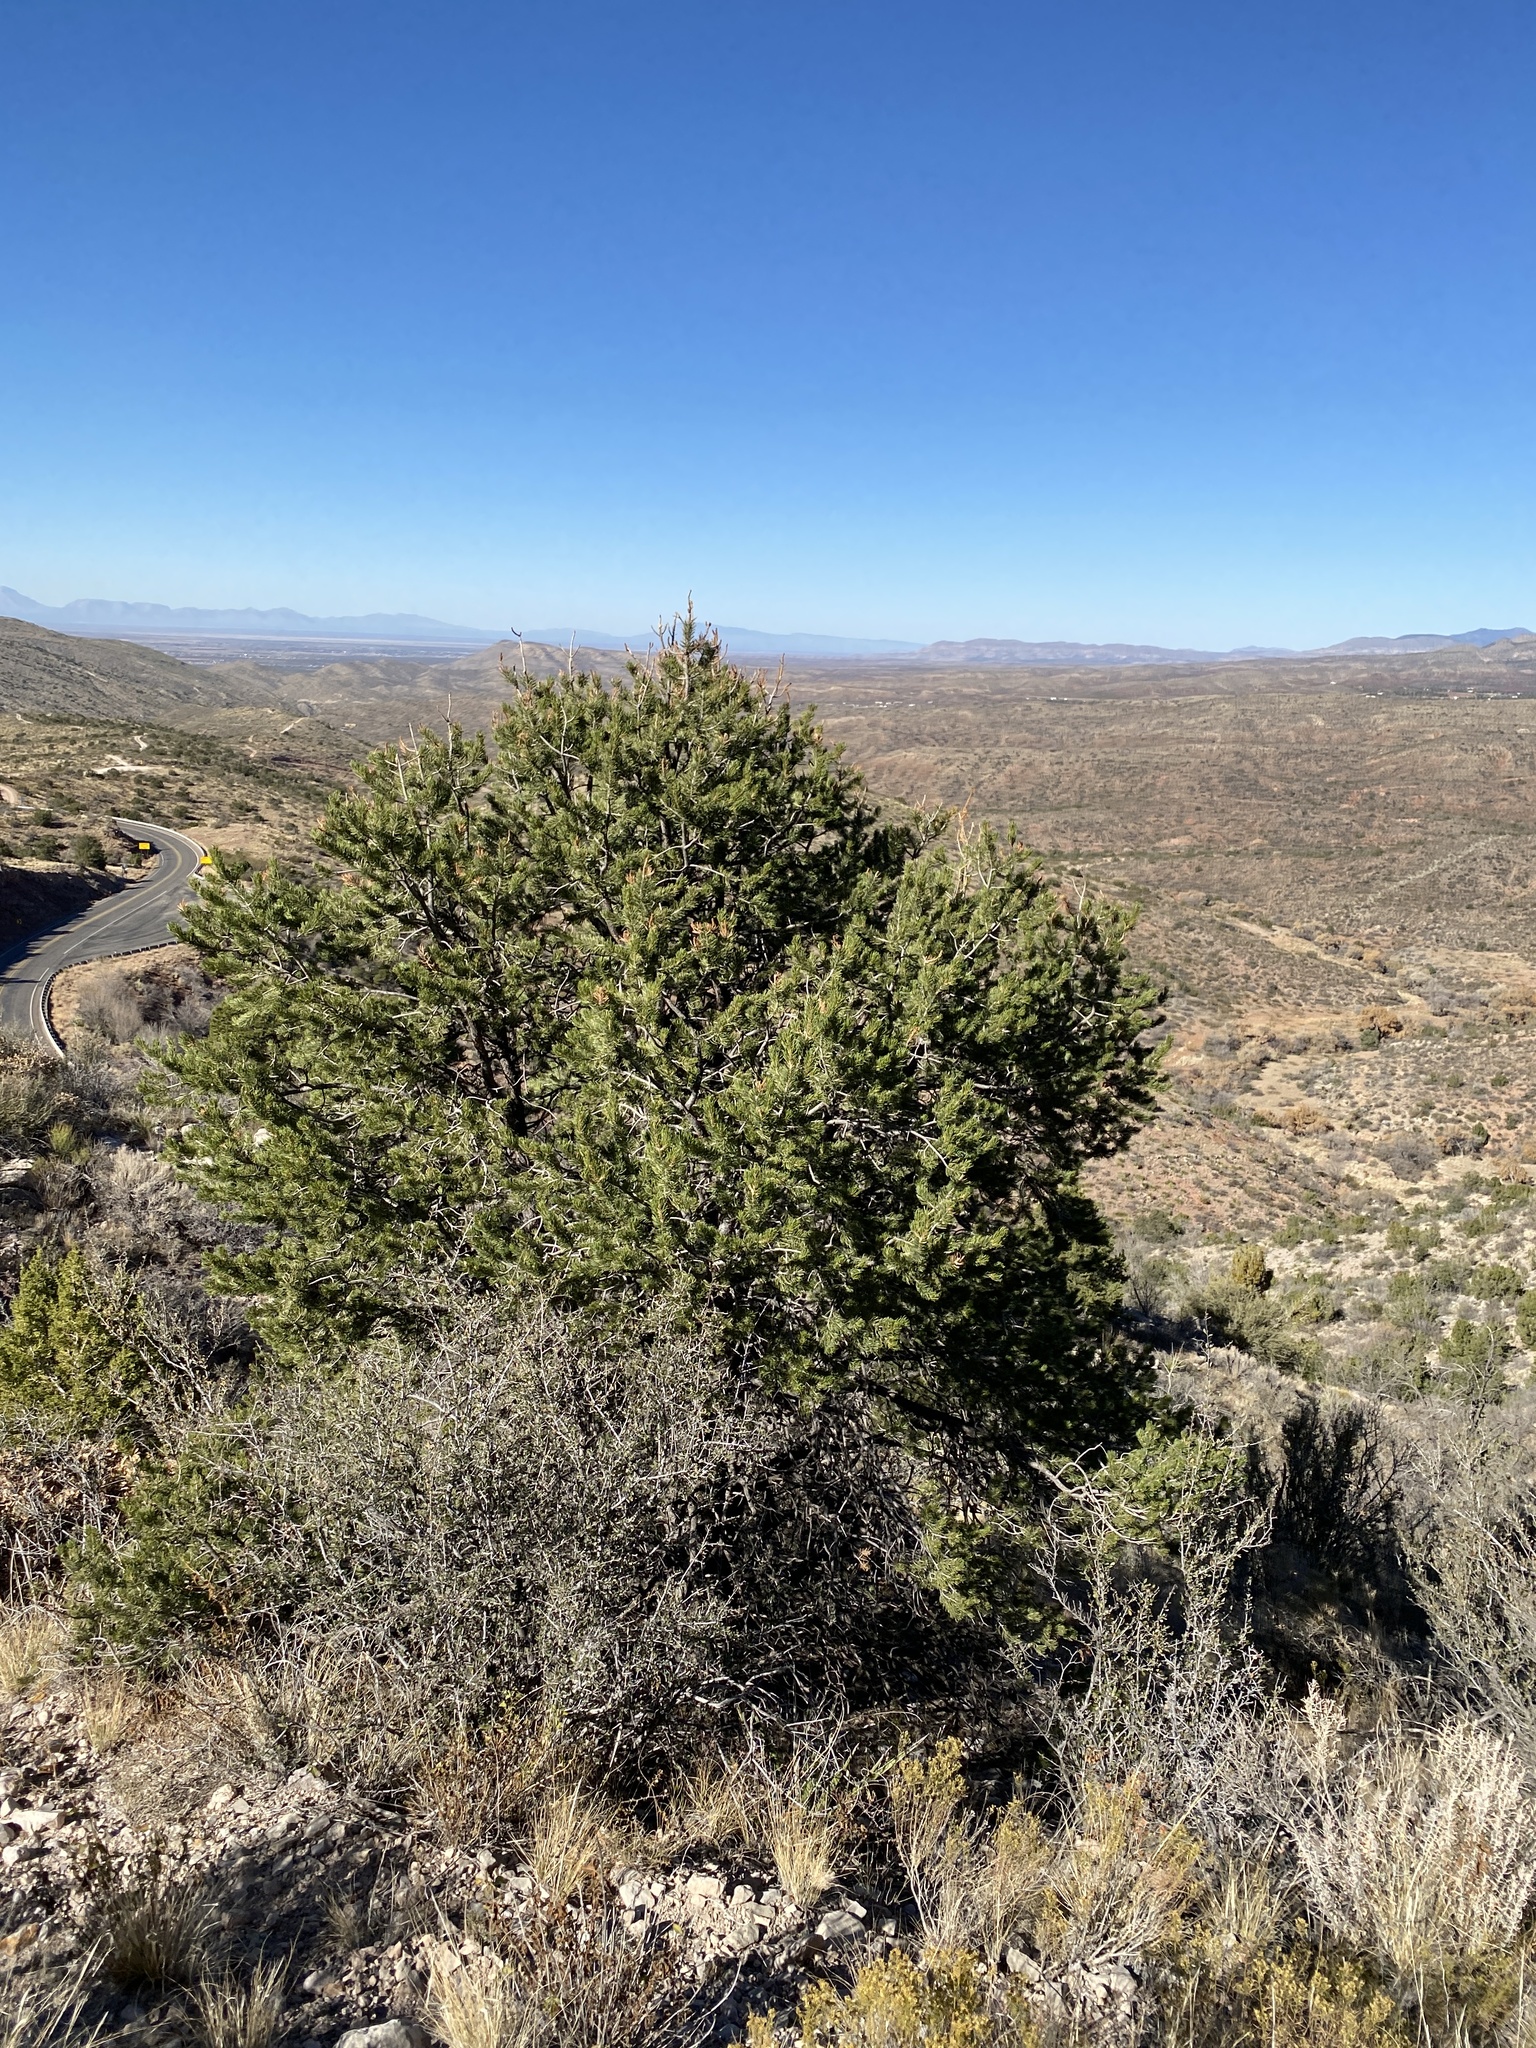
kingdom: Plantae
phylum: Tracheophyta
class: Pinopsida
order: Pinales
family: Pinaceae
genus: Pinus
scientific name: Pinus edulis
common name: Colorado pinyon
